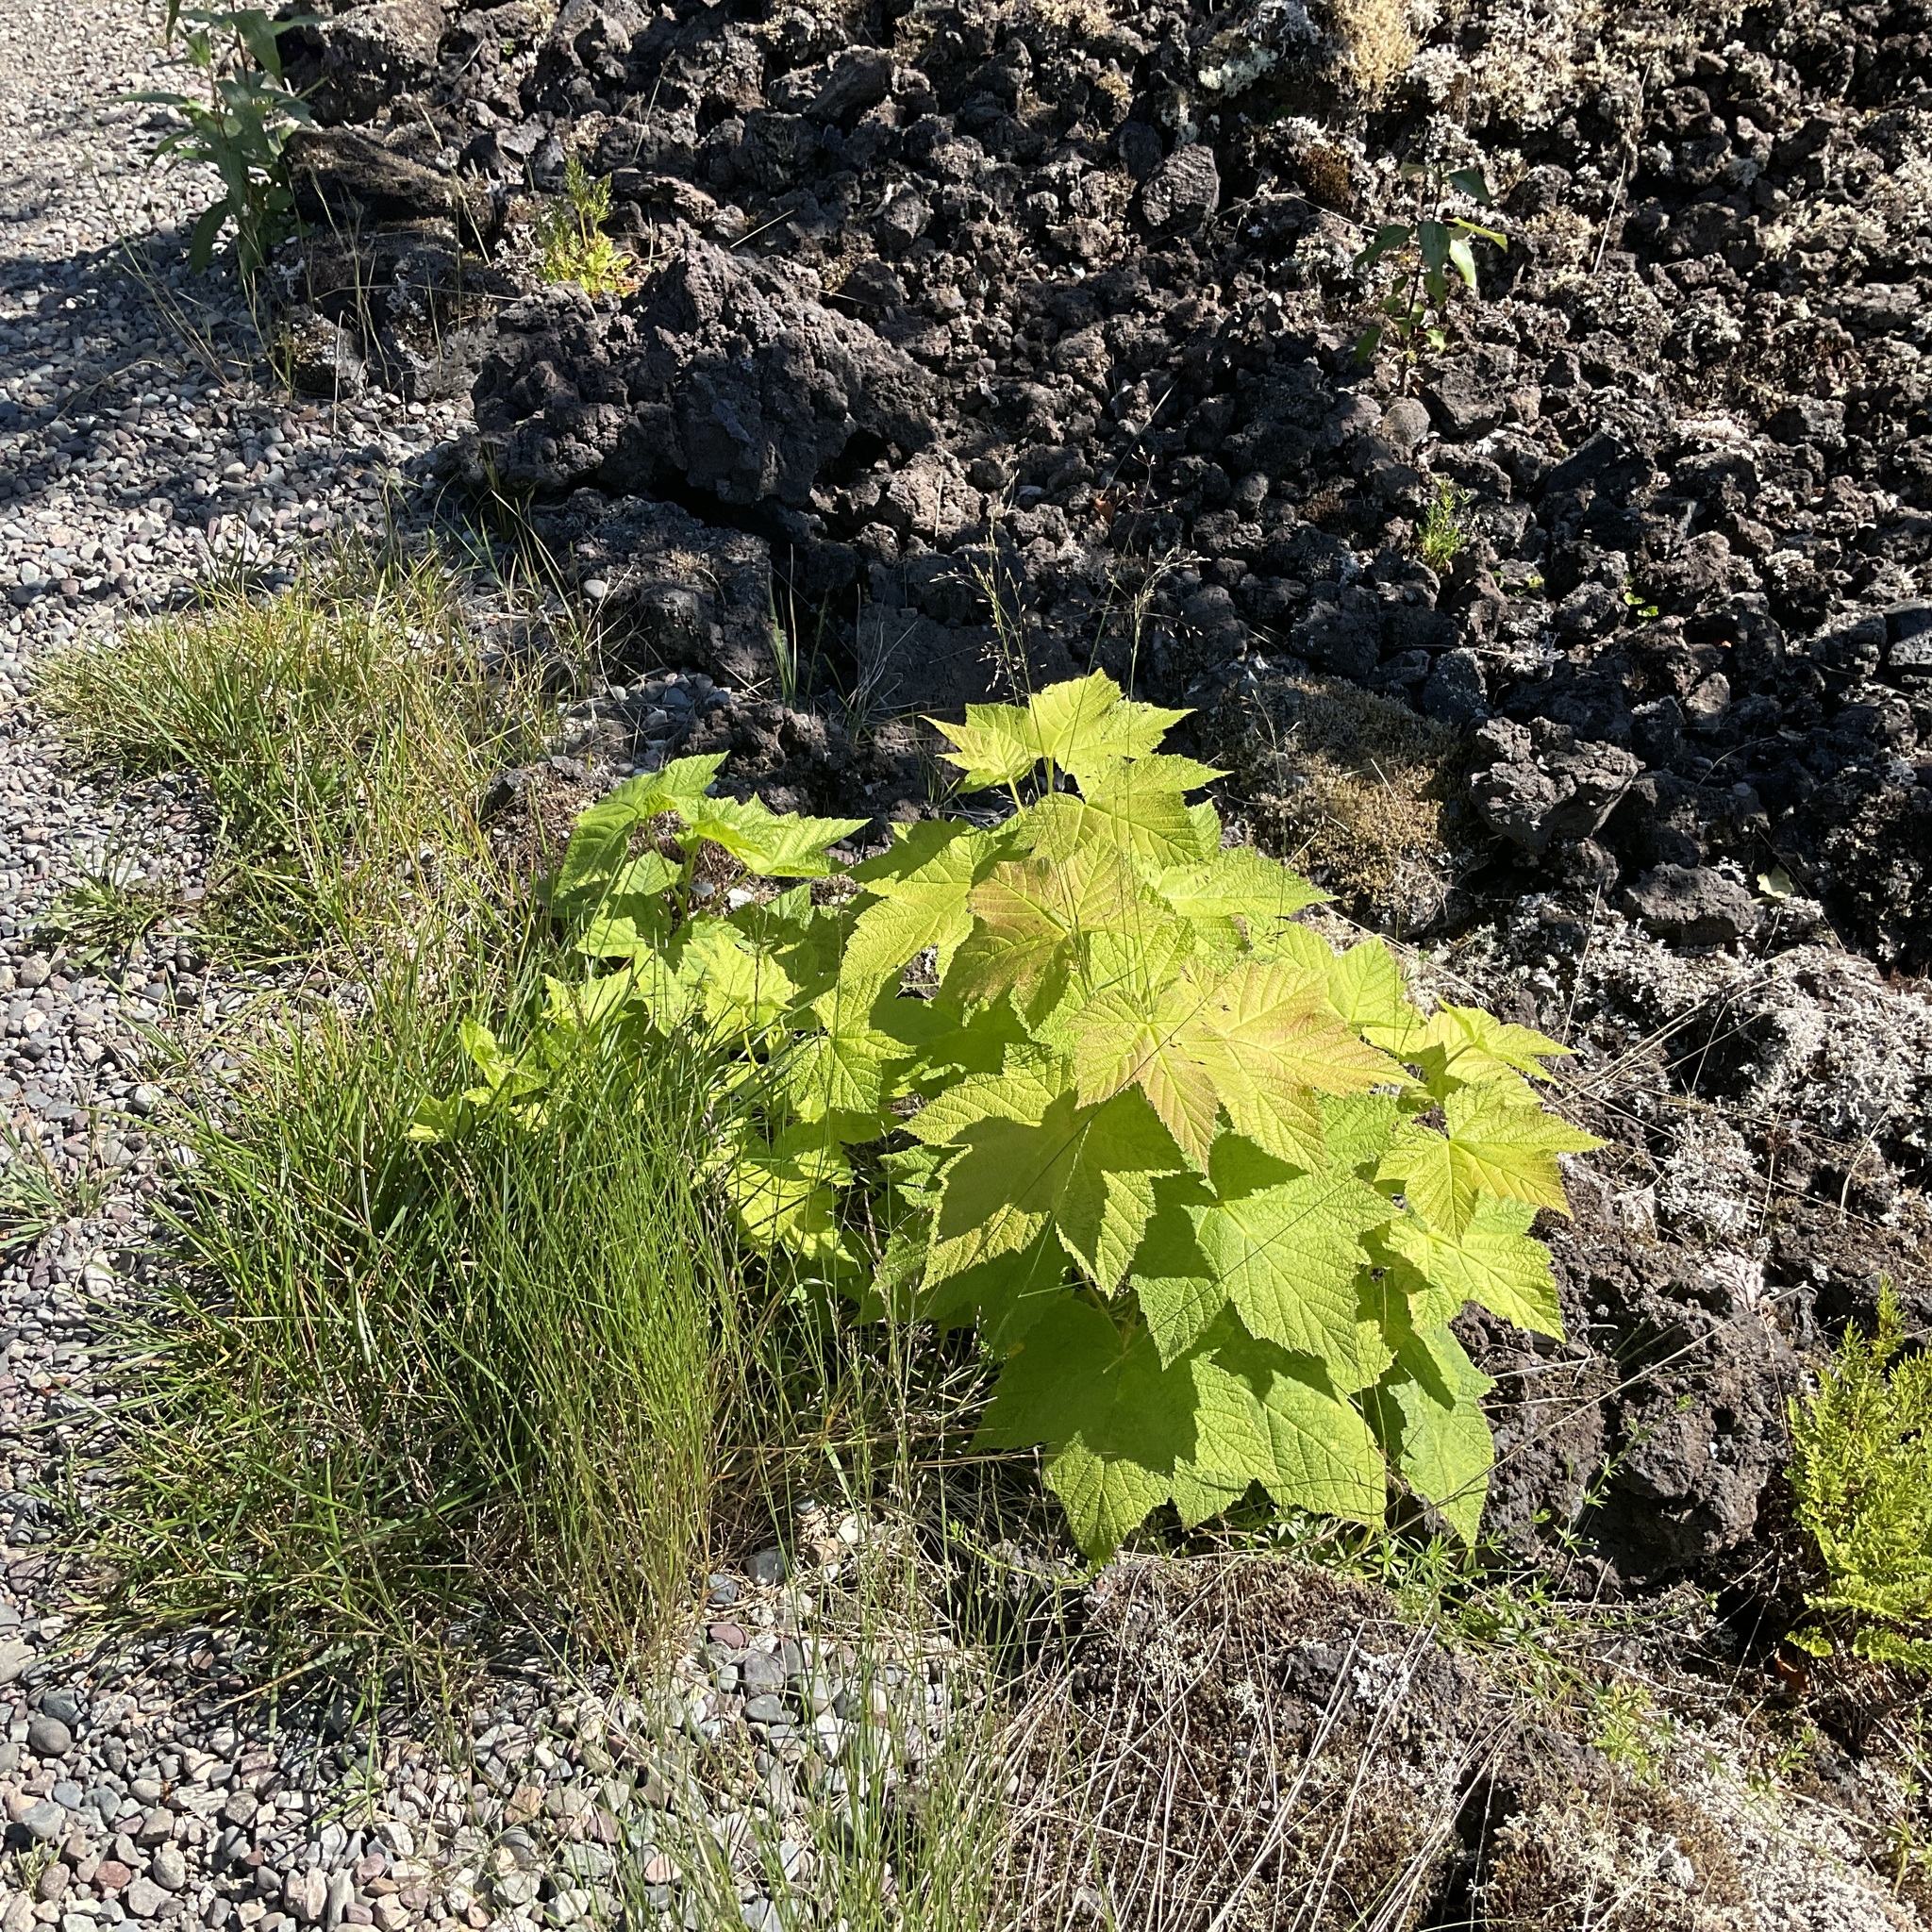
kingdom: Plantae
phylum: Tracheophyta
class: Magnoliopsida
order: Rosales
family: Rosaceae
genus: Rubus
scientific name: Rubus parviflorus
